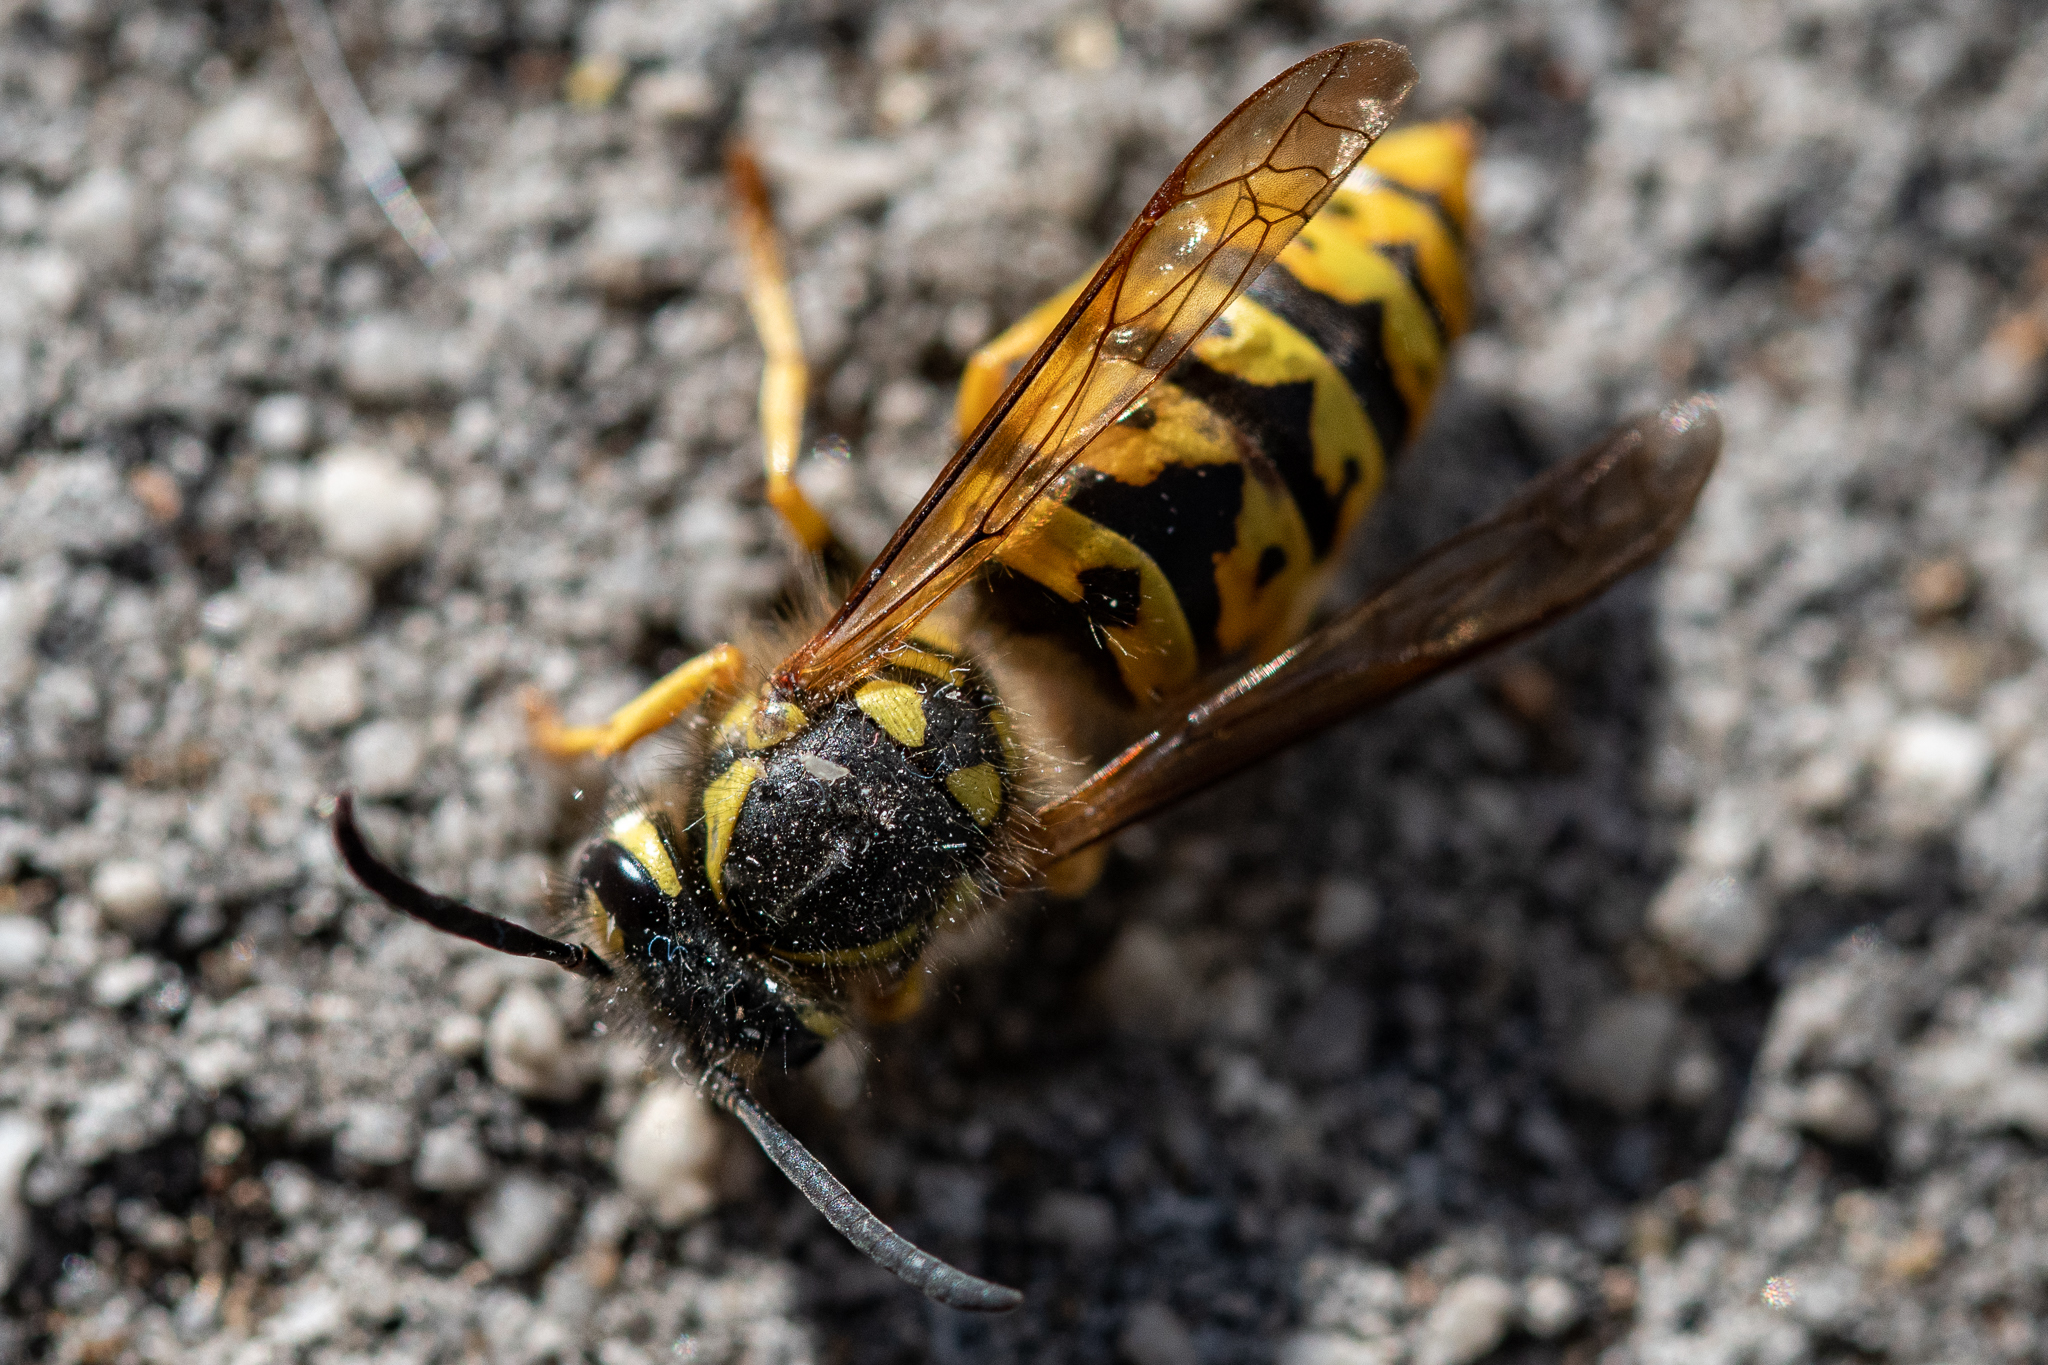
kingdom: Animalia
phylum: Arthropoda
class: Insecta
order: Hymenoptera
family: Vespidae
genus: Vespula
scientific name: Vespula germanica
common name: German wasp
